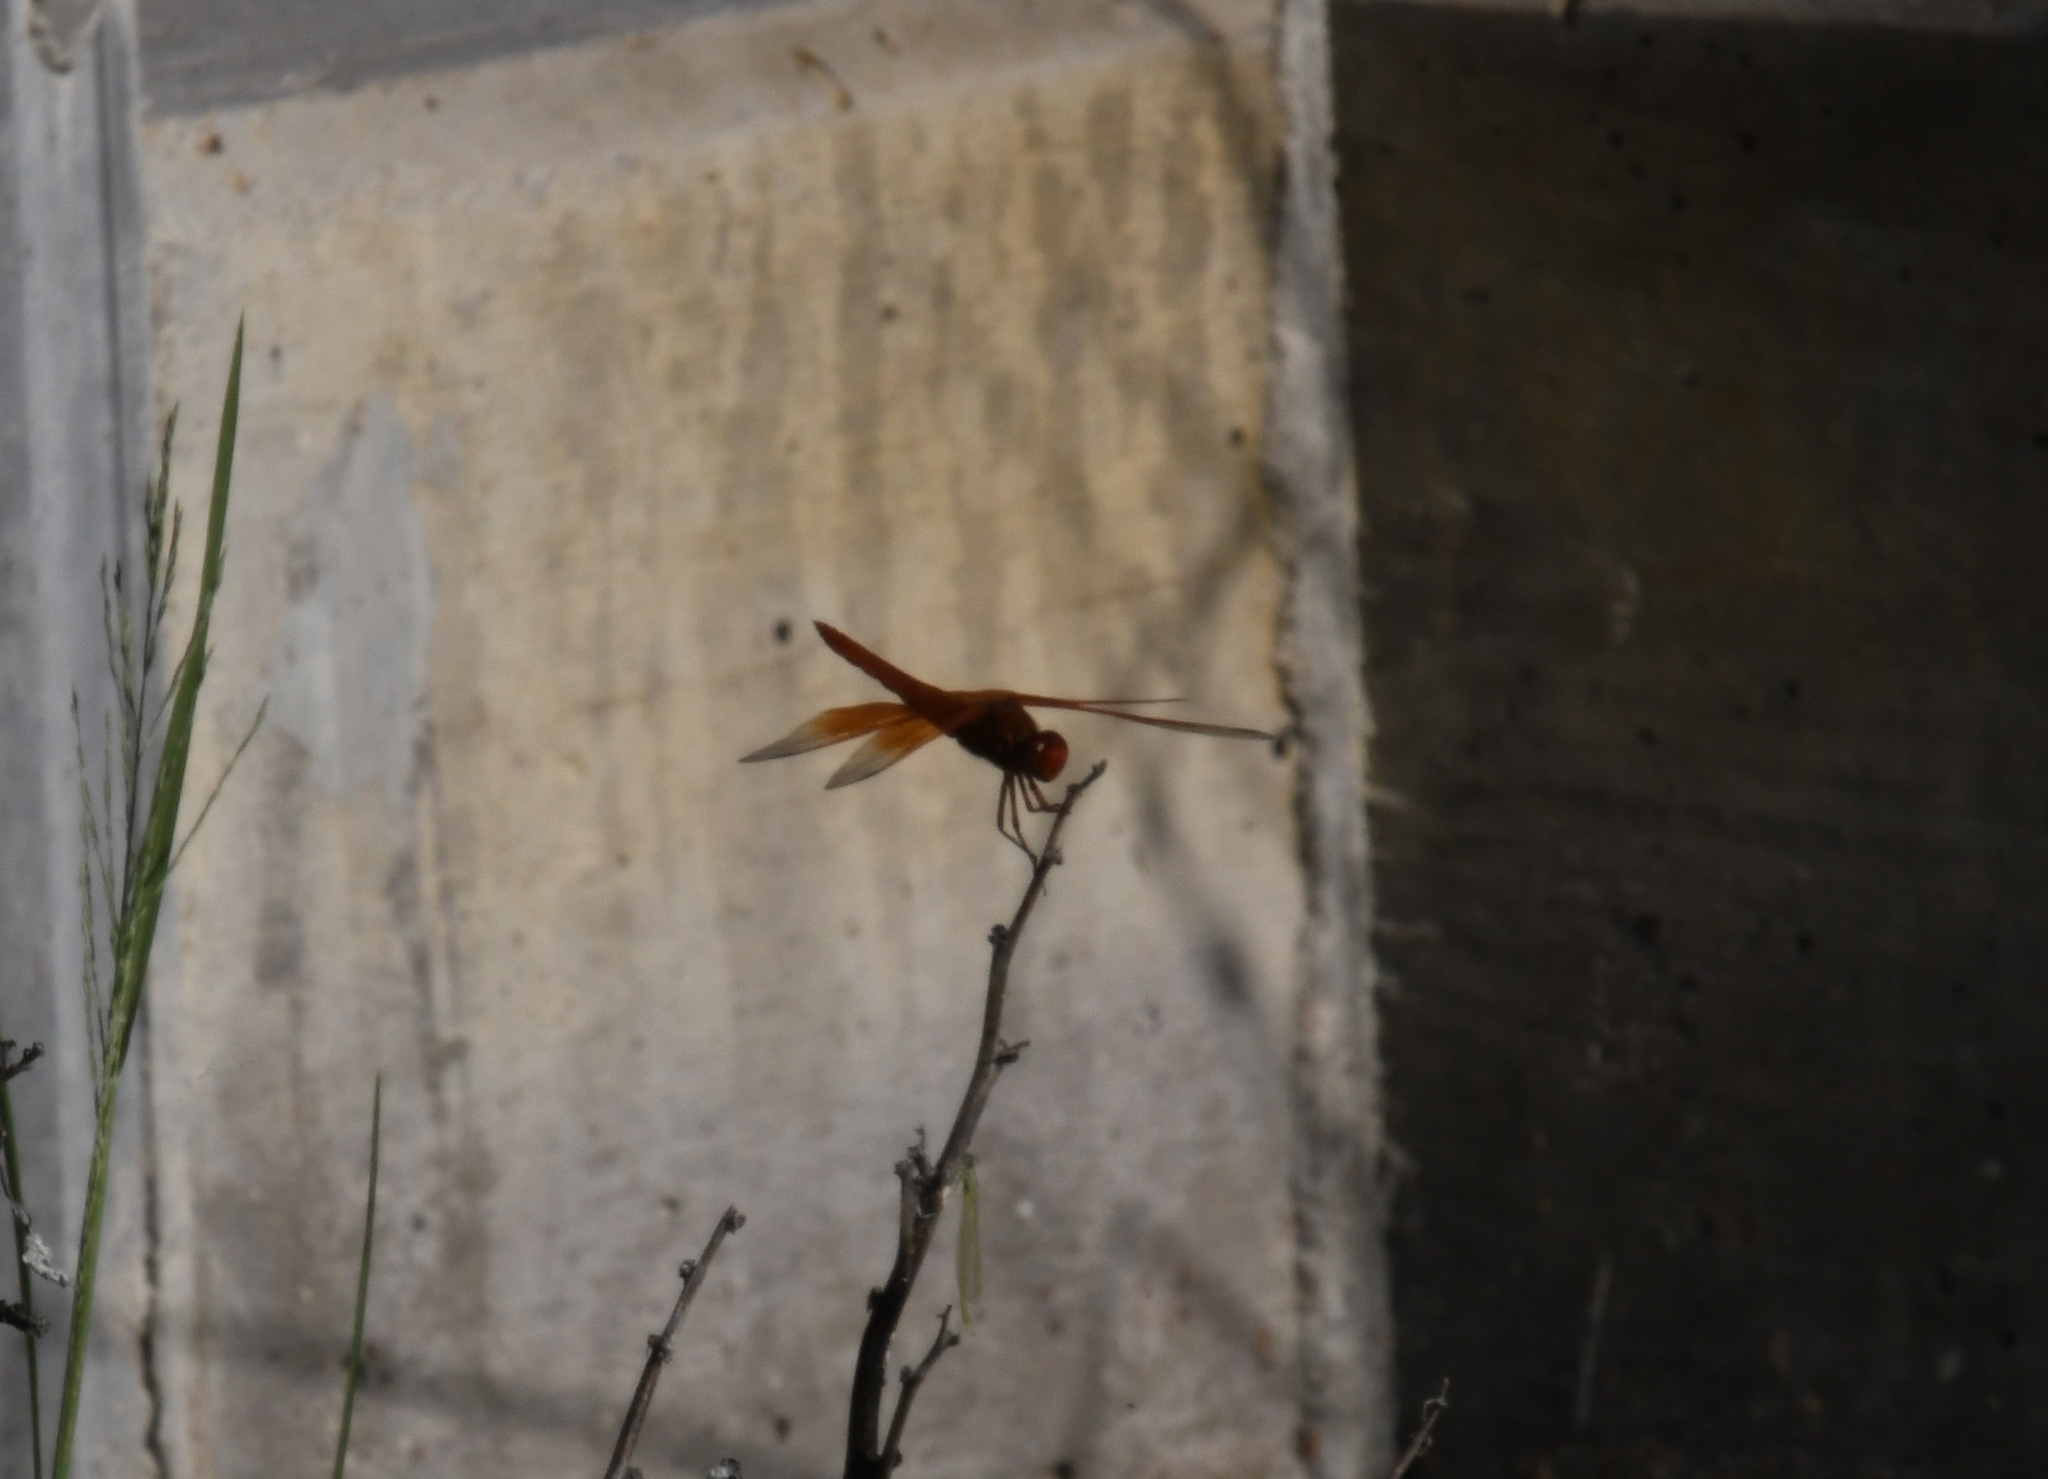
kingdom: Animalia
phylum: Arthropoda
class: Insecta
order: Odonata
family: Libellulidae
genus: Libellula
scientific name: Libellula saturata
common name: Flame skimmer
